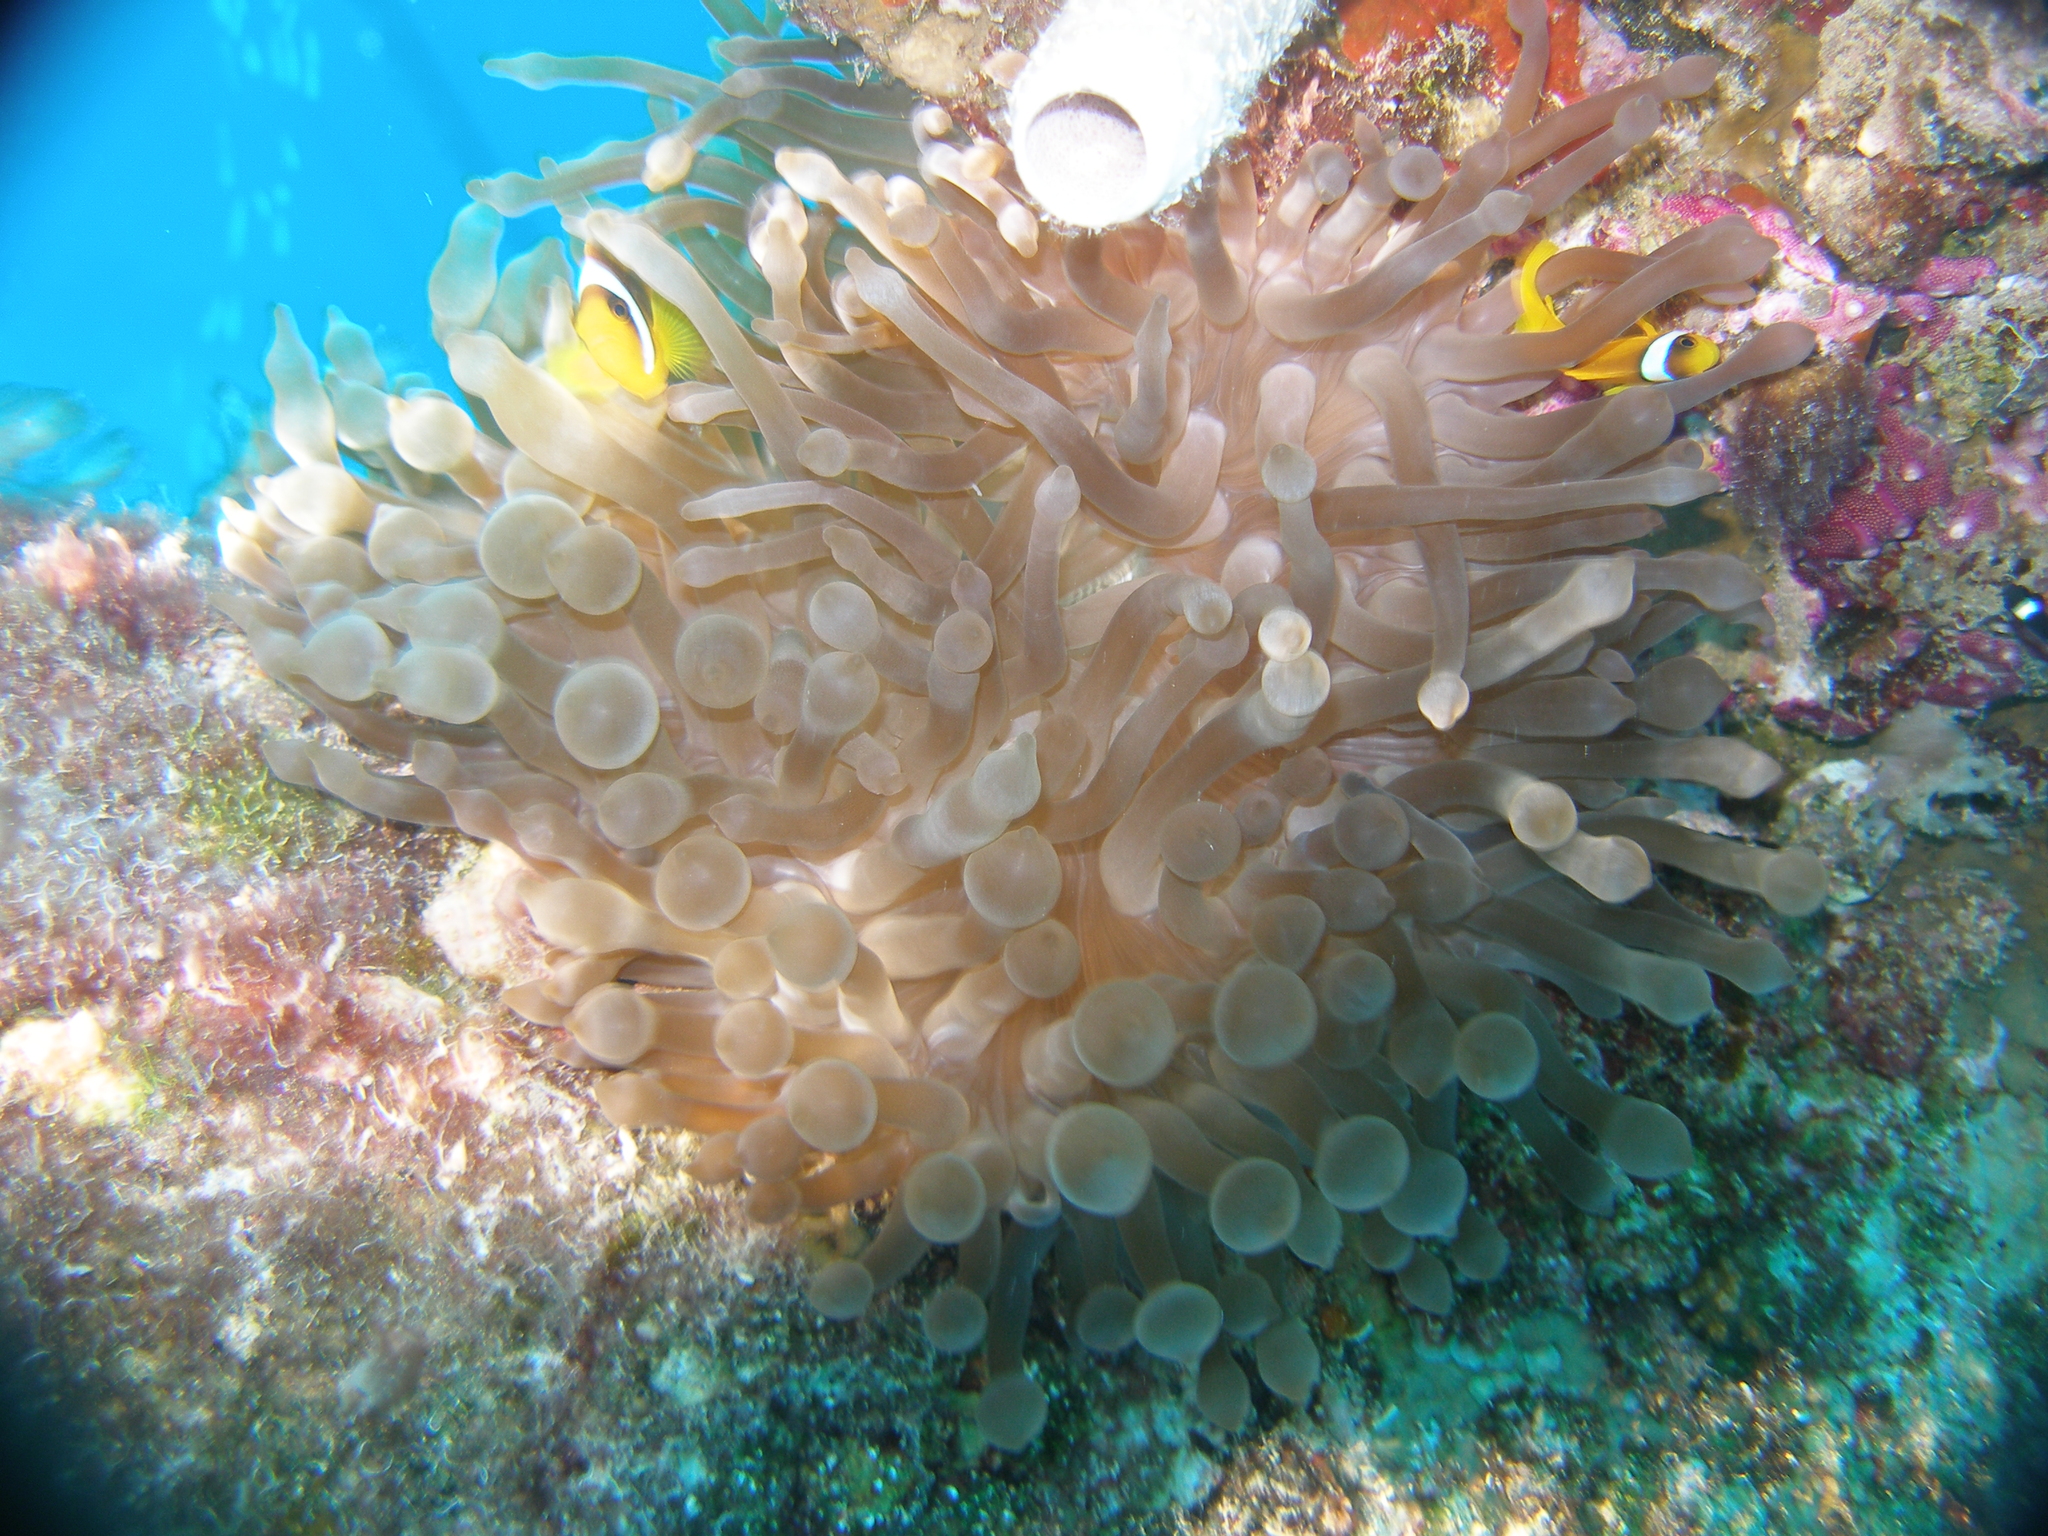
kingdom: Animalia
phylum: Cnidaria
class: Anthozoa
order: Actiniaria
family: Actiniidae
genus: Entacmaea
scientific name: Entacmaea quadricolor
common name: Bulb tentacle sea anemone
